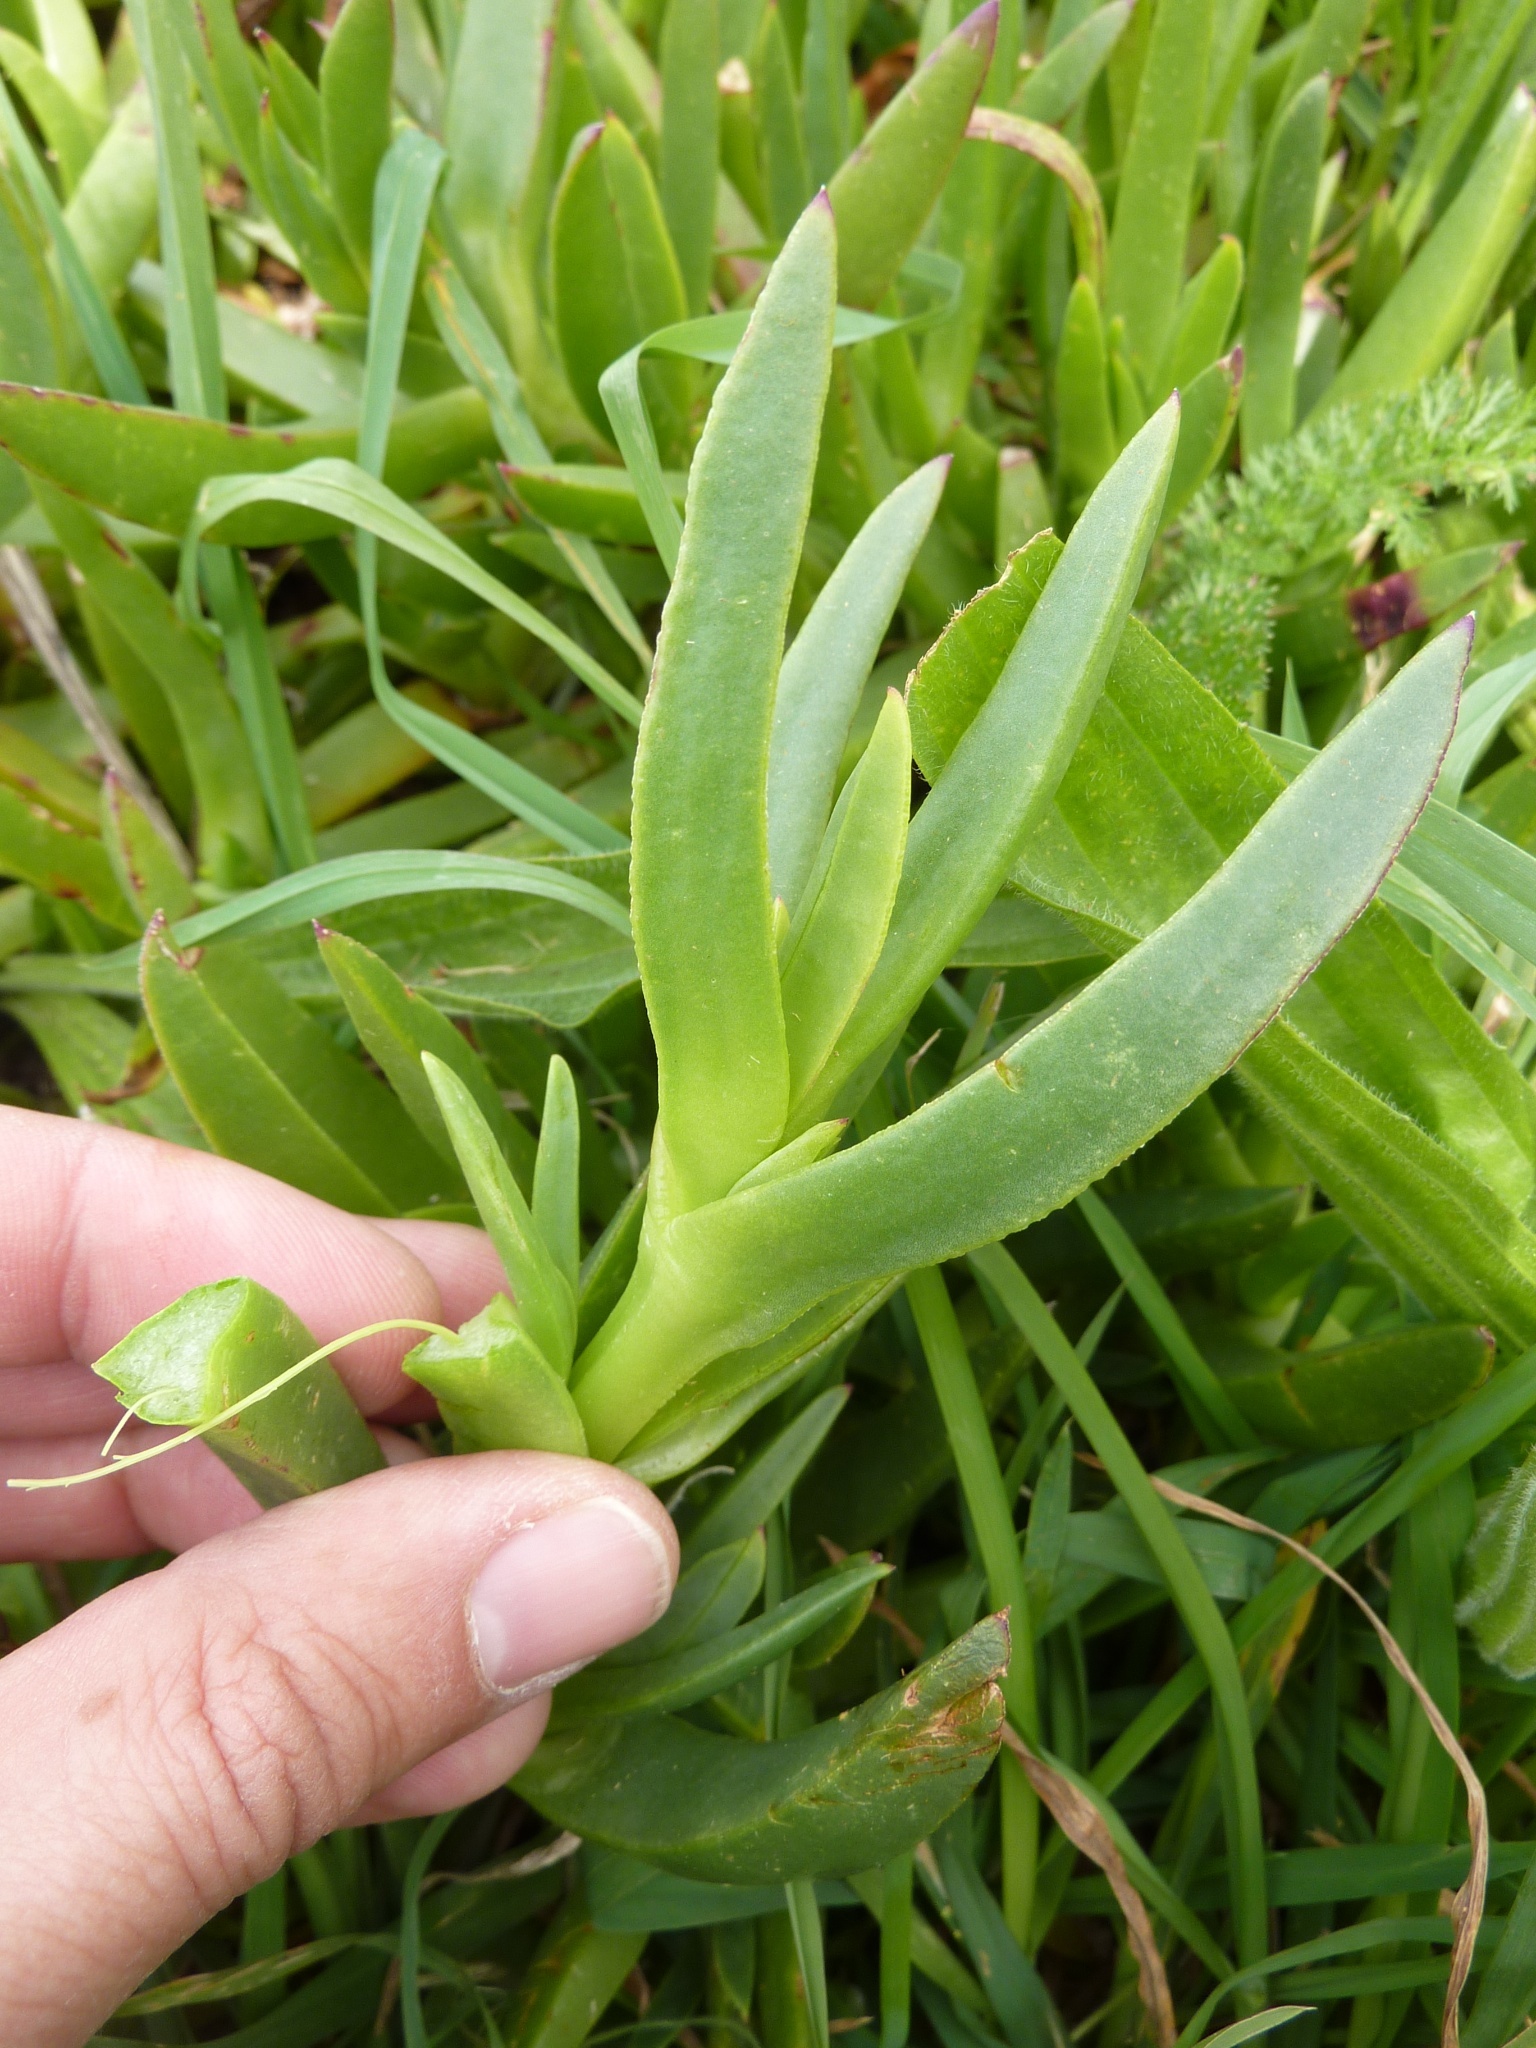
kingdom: Plantae
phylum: Tracheophyta
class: Magnoliopsida
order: Caryophyllales
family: Aizoaceae
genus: Carpobrotus
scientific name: Carpobrotus chilensis
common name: Sea fig
